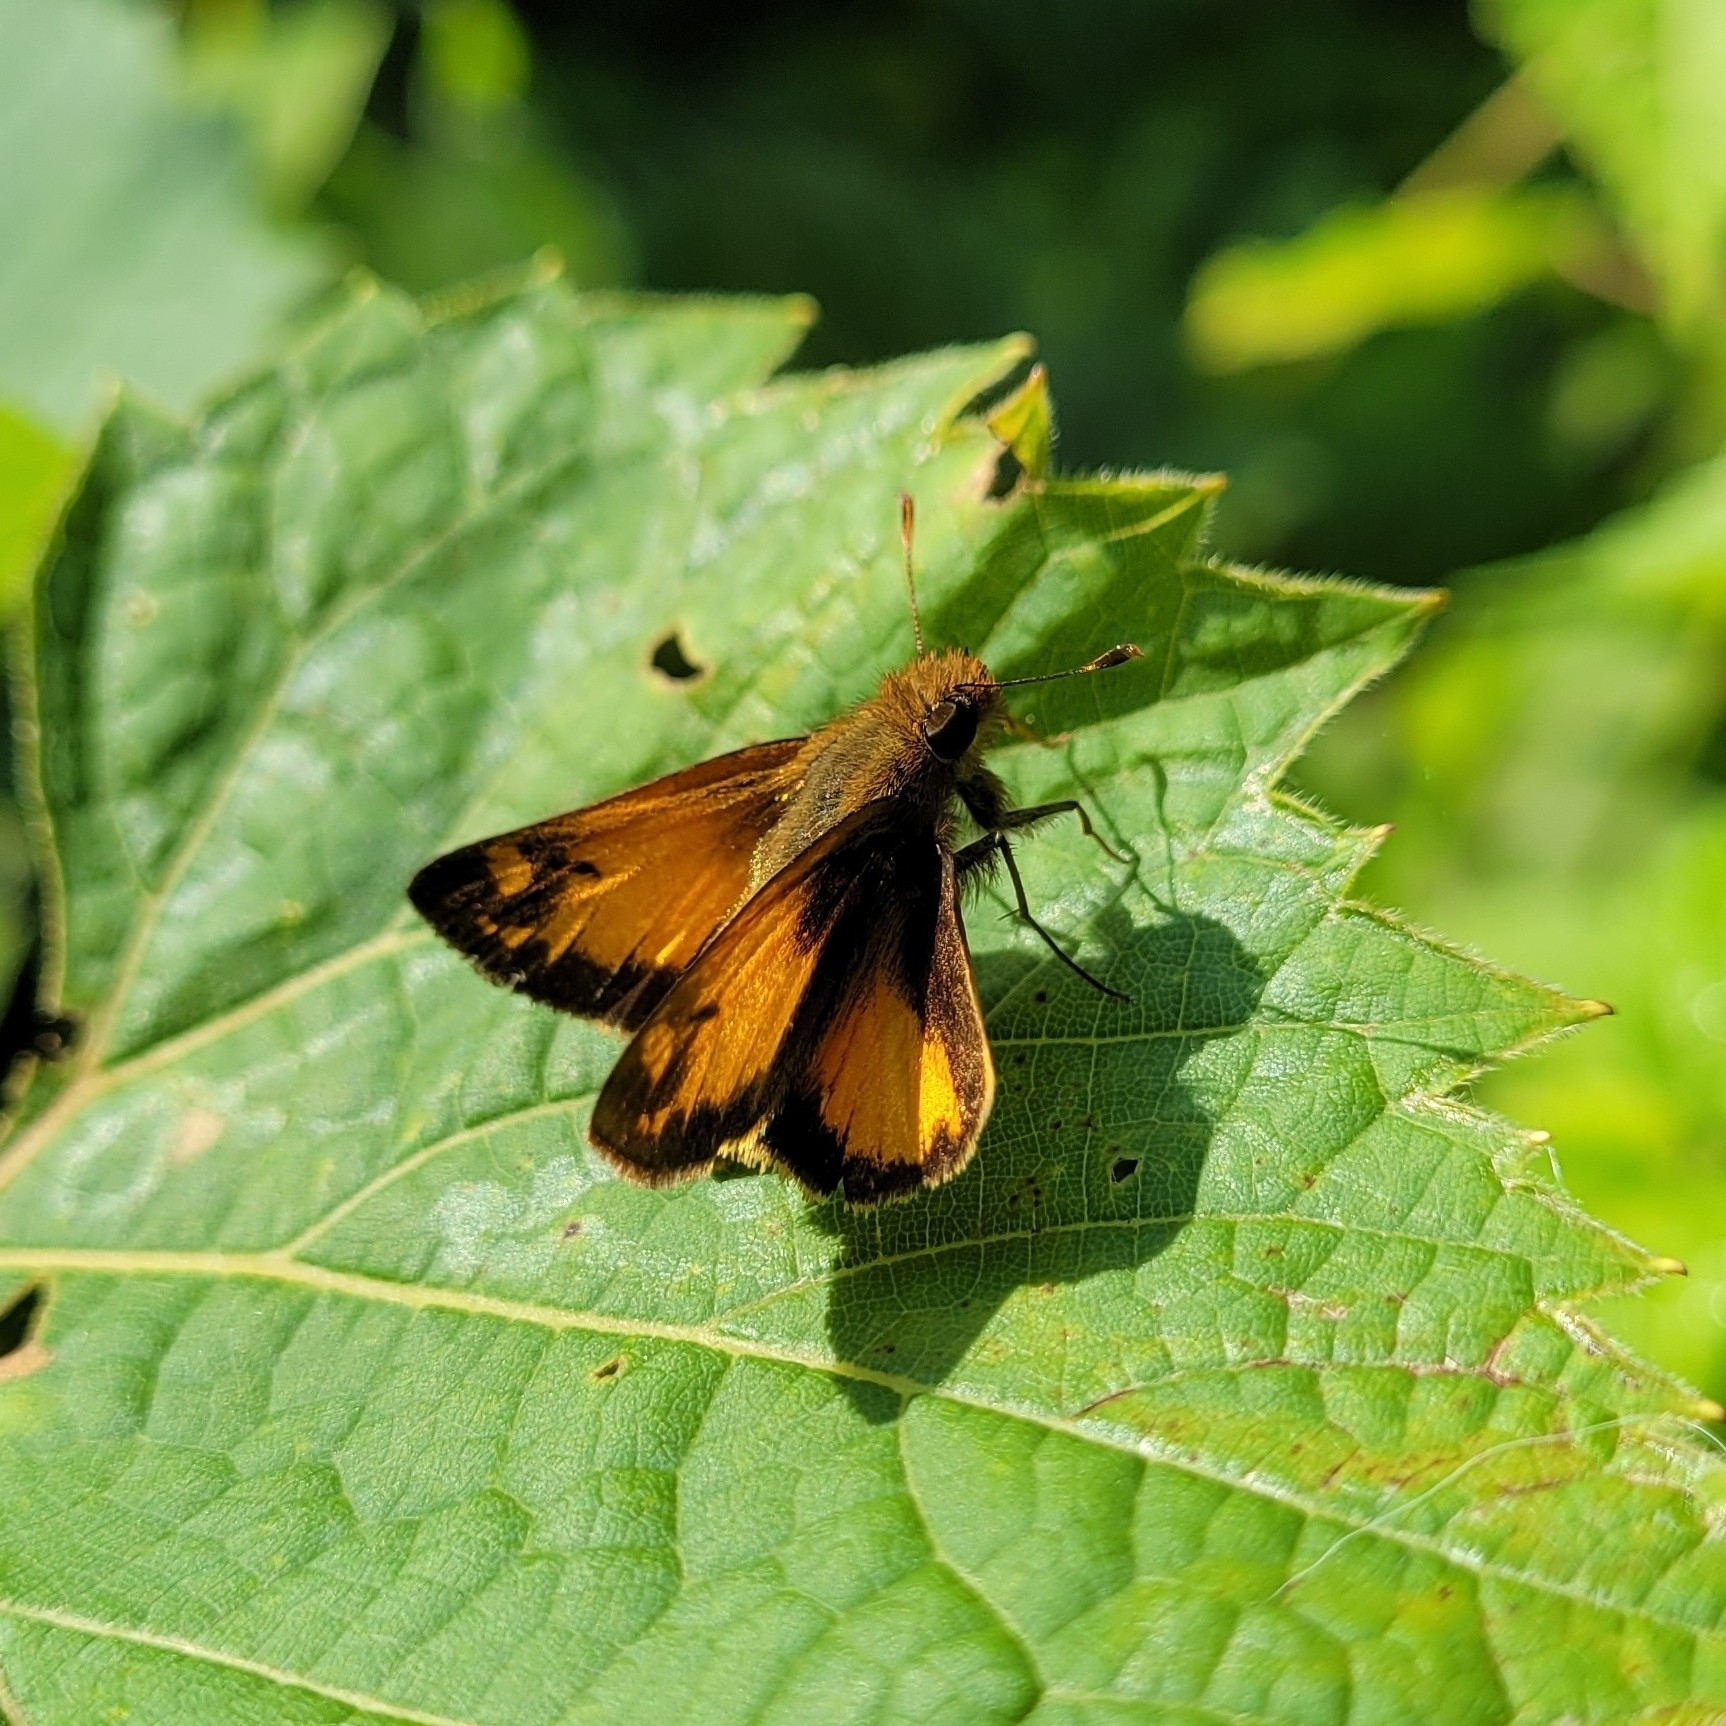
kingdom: Animalia
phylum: Arthropoda
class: Insecta
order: Lepidoptera
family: Hesperiidae
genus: Lon
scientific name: Lon zabulon
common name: Zabulon skipper
